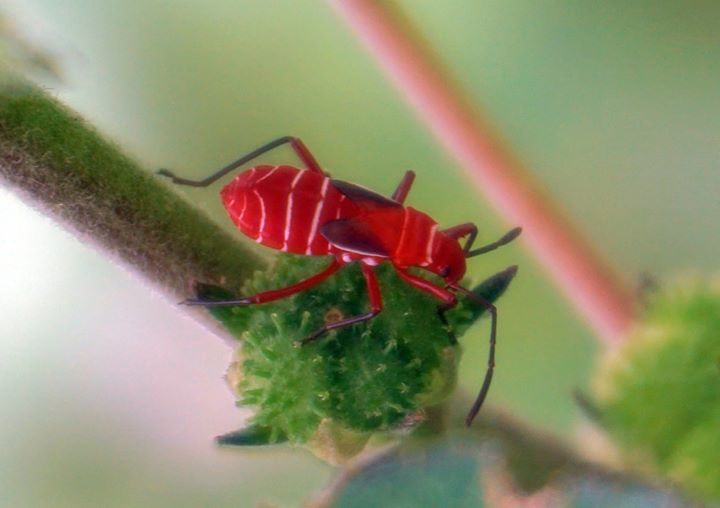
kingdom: Animalia
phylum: Arthropoda
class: Insecta
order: Hemiptera
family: Pyrrhocoridae
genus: Dysdercus
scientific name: Dysdercus suturellus
